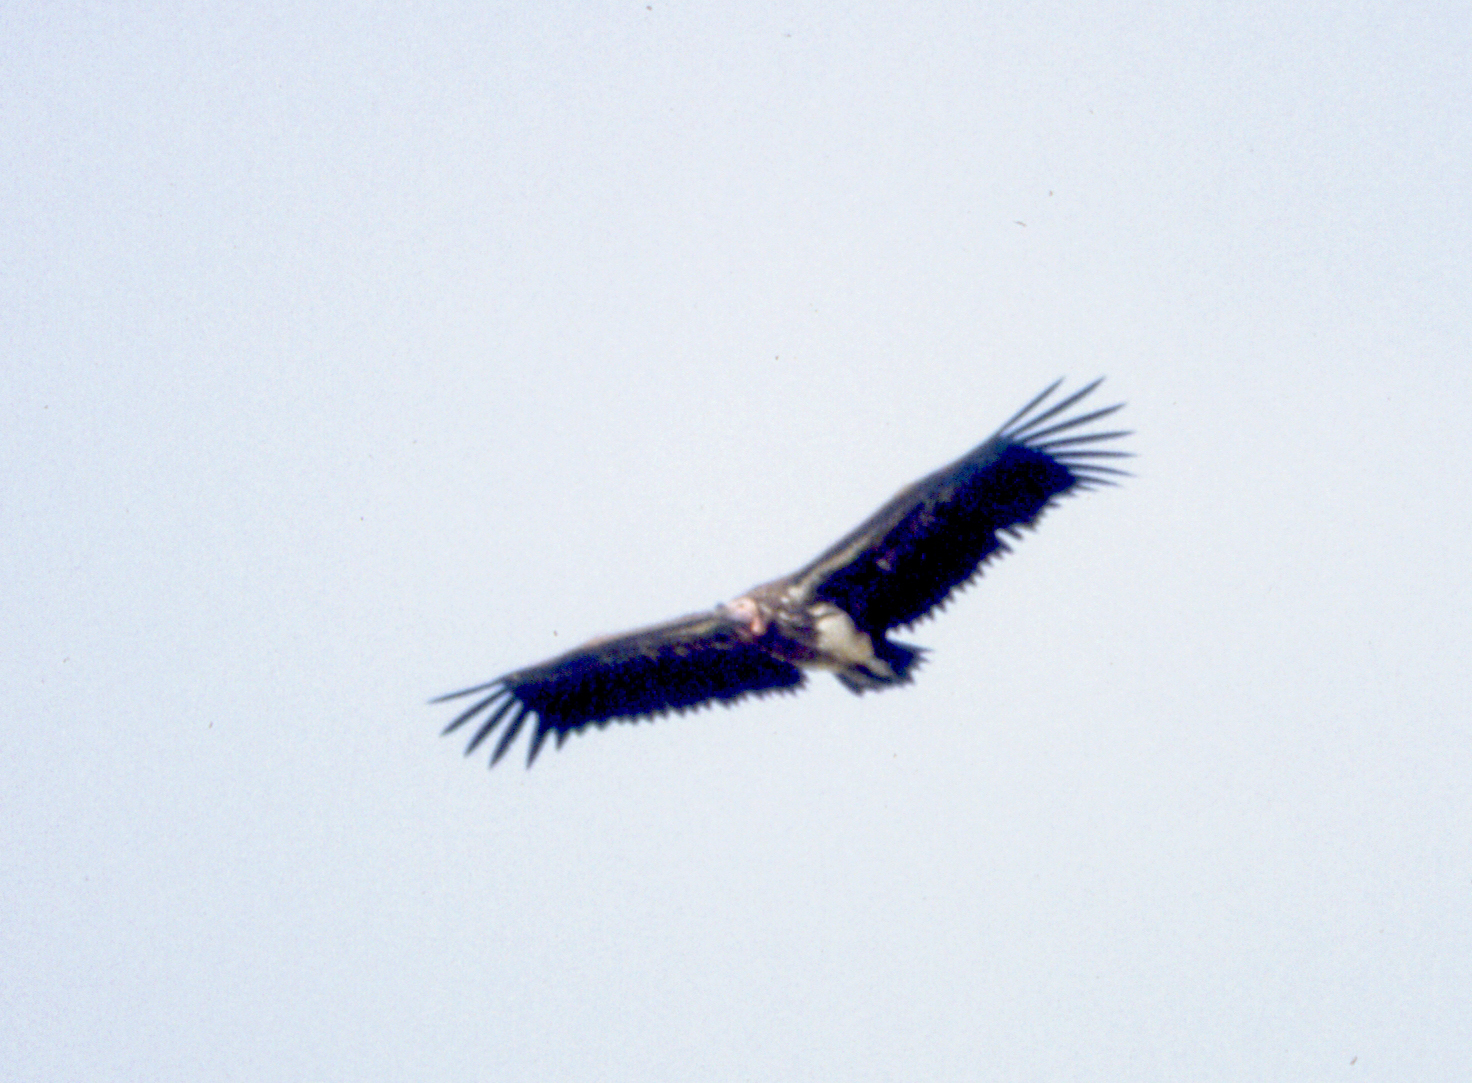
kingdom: Animalia
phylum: Chordata
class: Aves
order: Accipitriformes
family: Accipitridae
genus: Torgos
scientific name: Torgos tracheliotos
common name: Lappet-faced vulture
